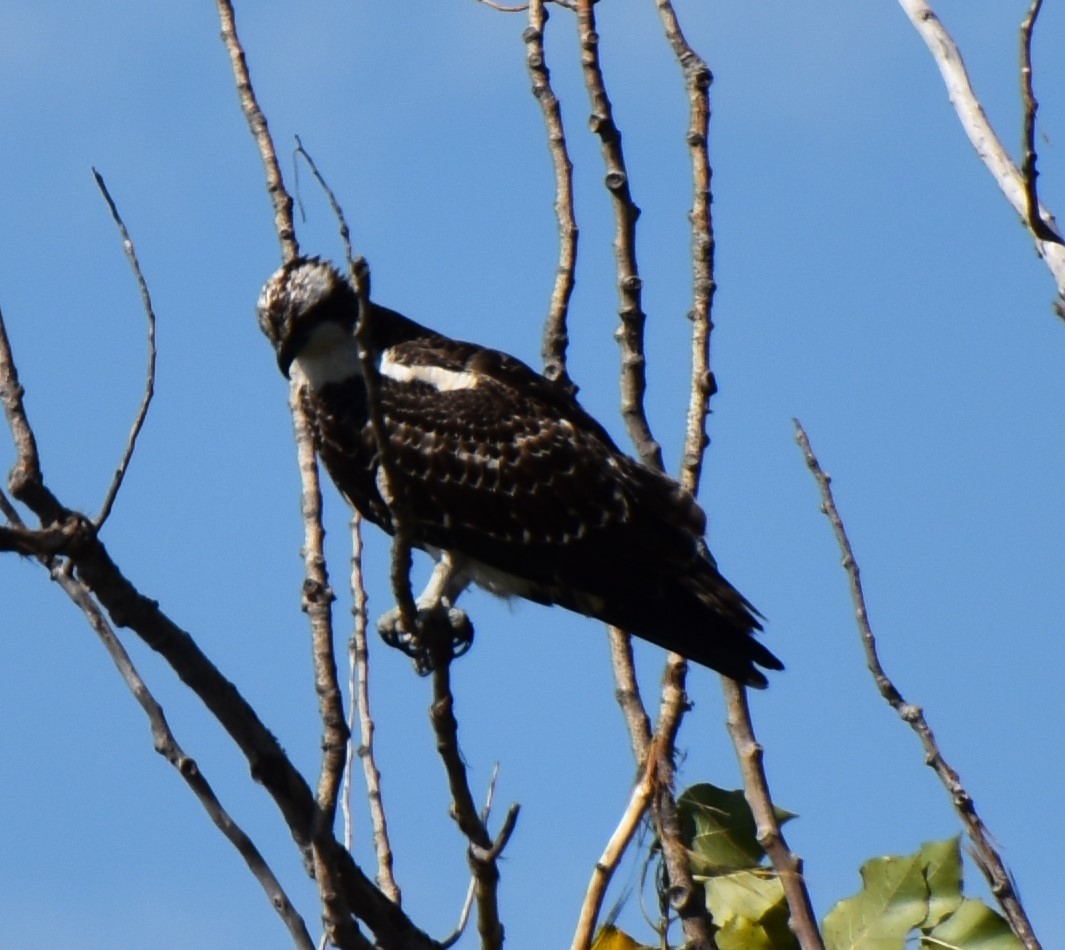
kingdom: Animalia
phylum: Chordata
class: Aves
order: Accipitriformes
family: Pandionidae
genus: Pandion
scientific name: Pandion haliaetus
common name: Osprey
